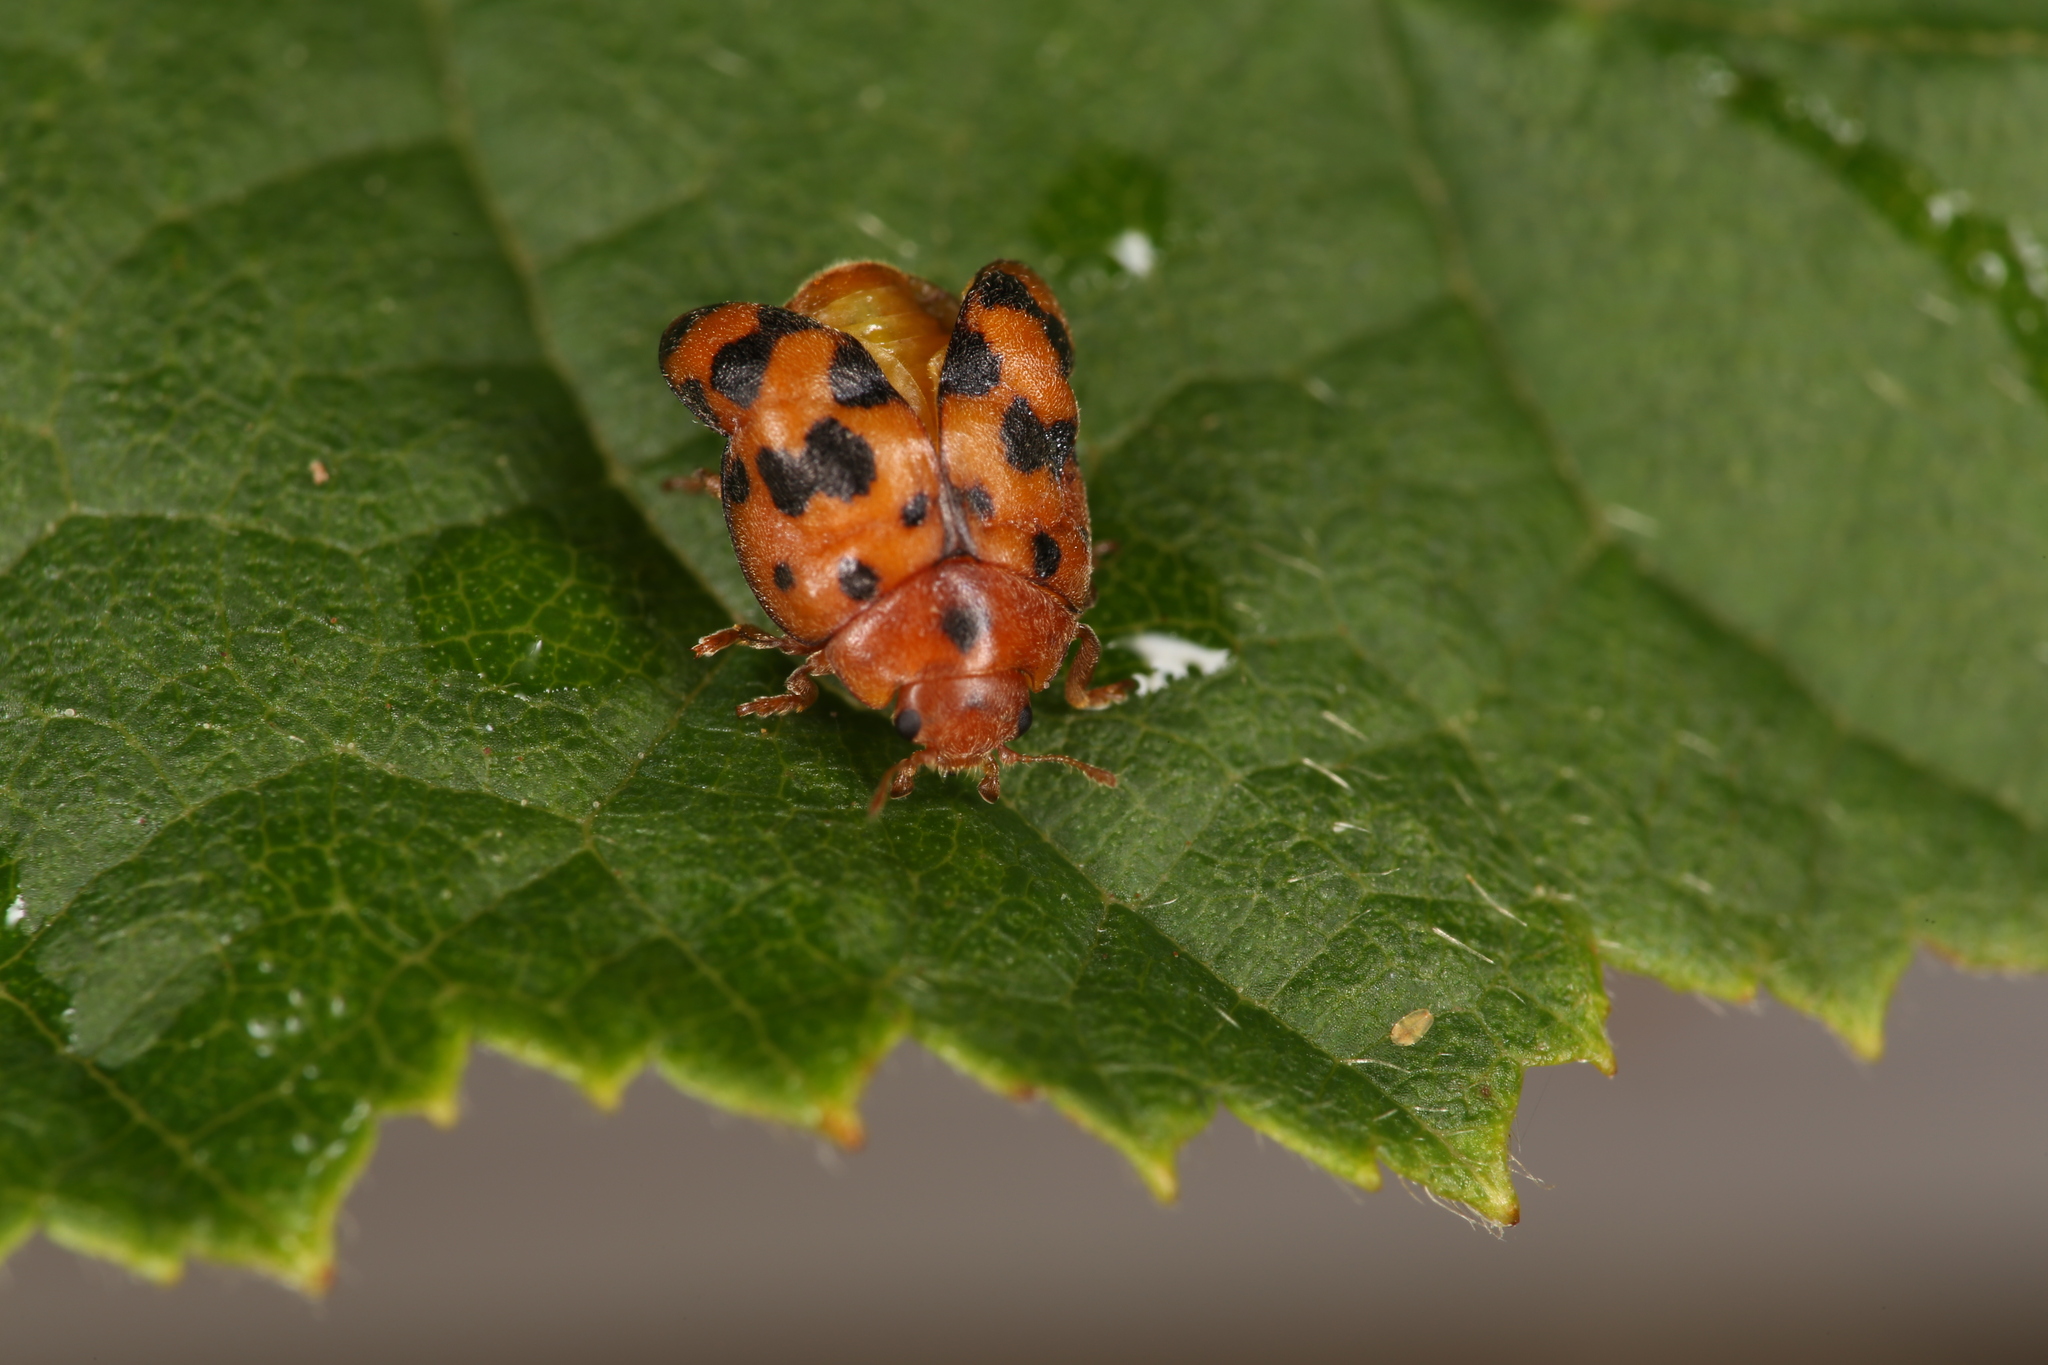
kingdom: Animalia
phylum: Arthropoda
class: Insecta
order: Coleoptera
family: Coccinellidae
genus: Subcoccinella
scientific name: Subcoccinella vigintiquatuorpunctata
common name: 24-spot ladybird
